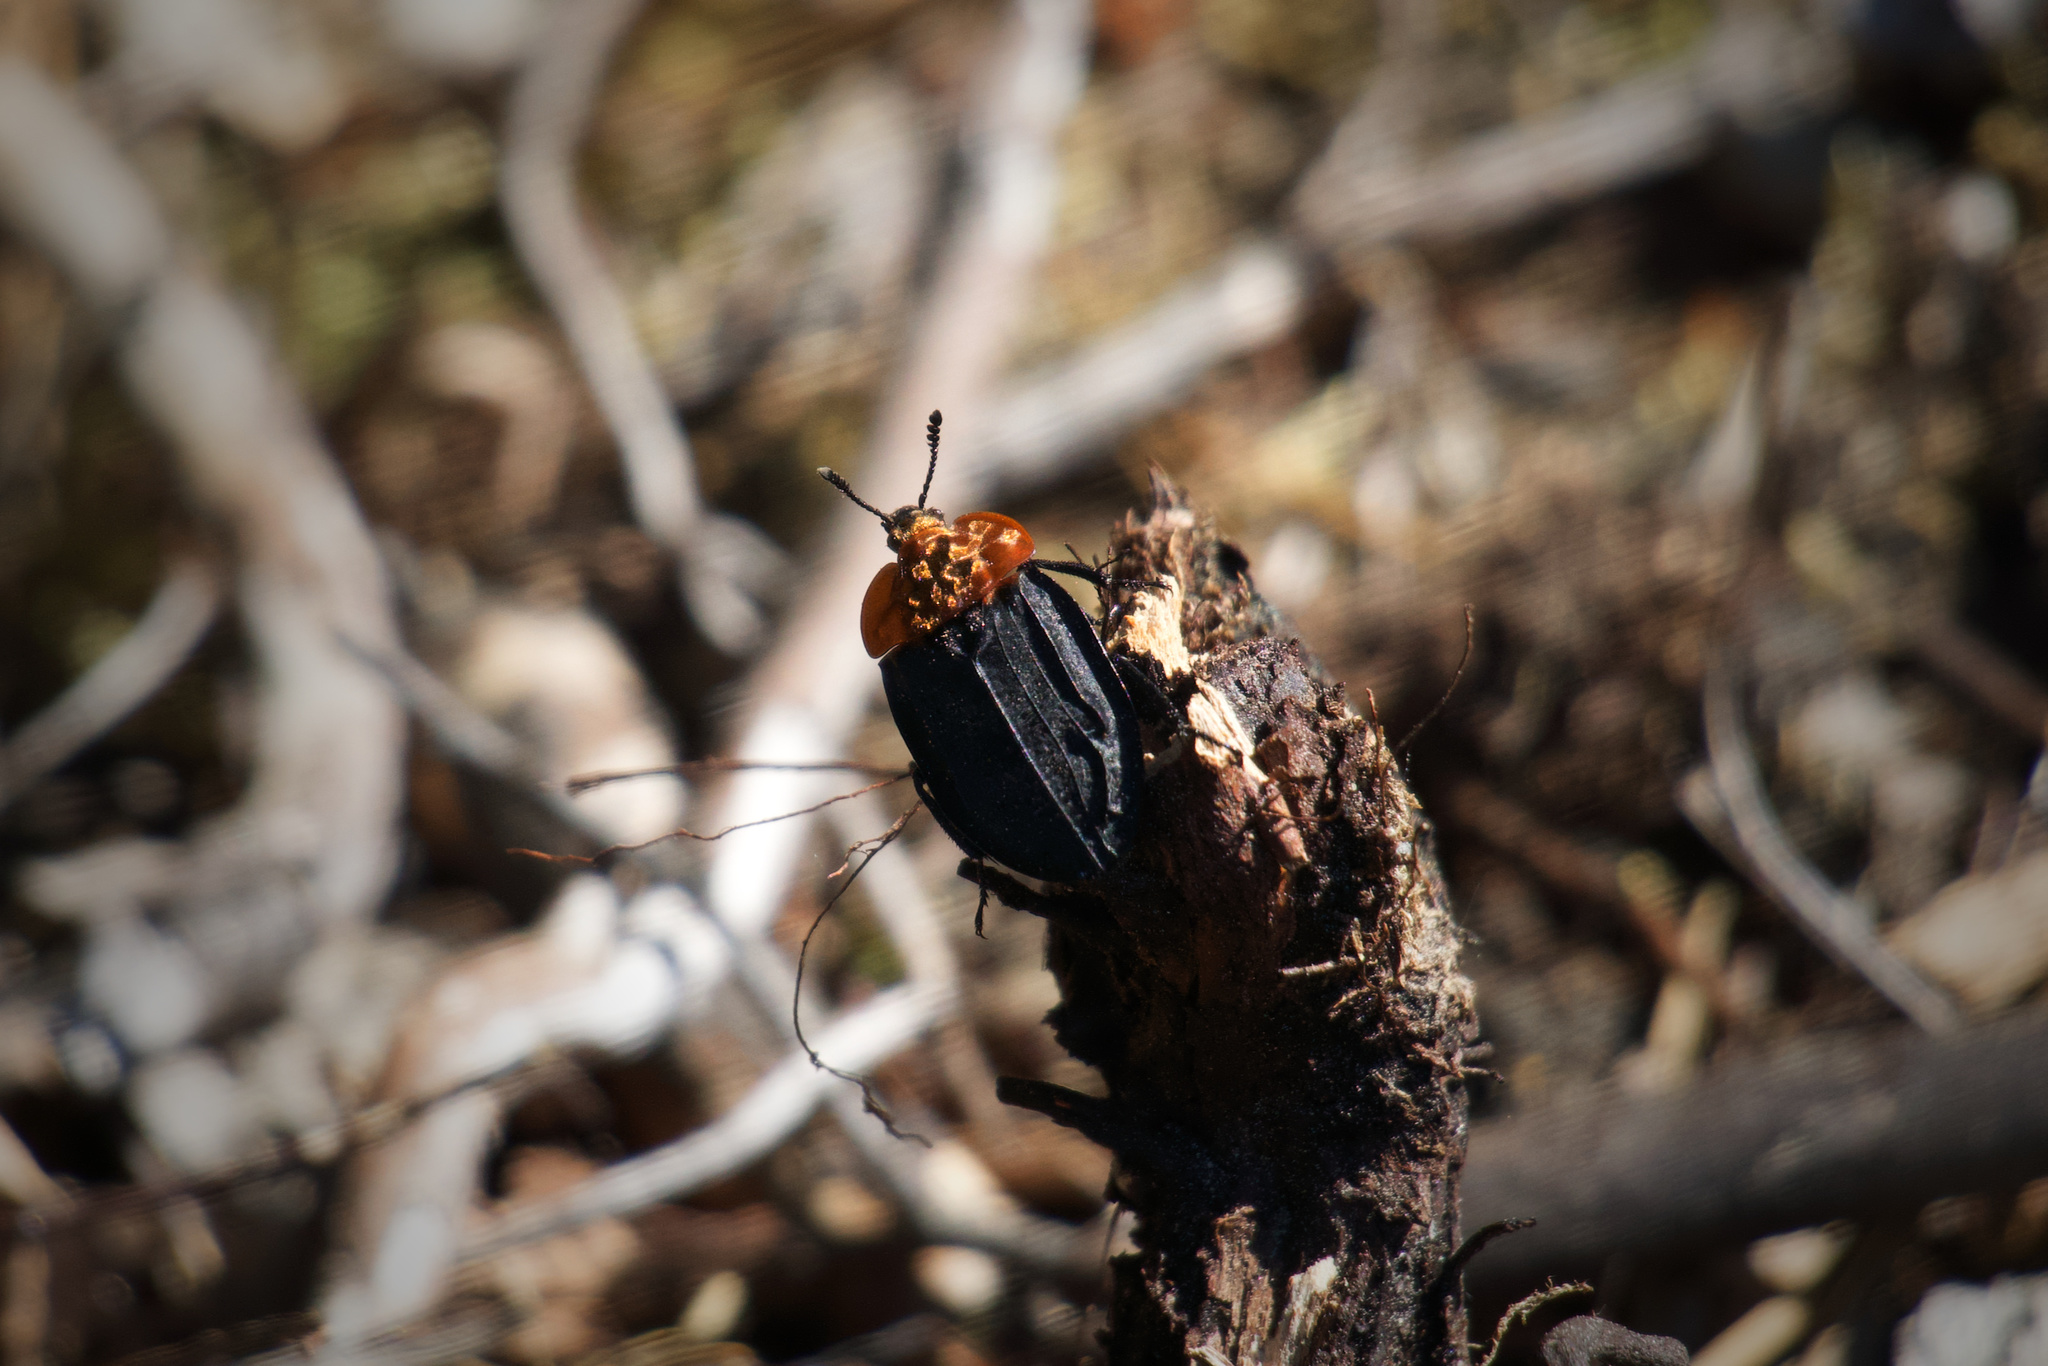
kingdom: Animalia
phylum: Arthropoda
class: Insecta
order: Coleoptera
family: Staphylinidae
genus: Oiceoptoma
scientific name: Oiceoptoma thoracicum
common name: Red-breasted carrion beetle
